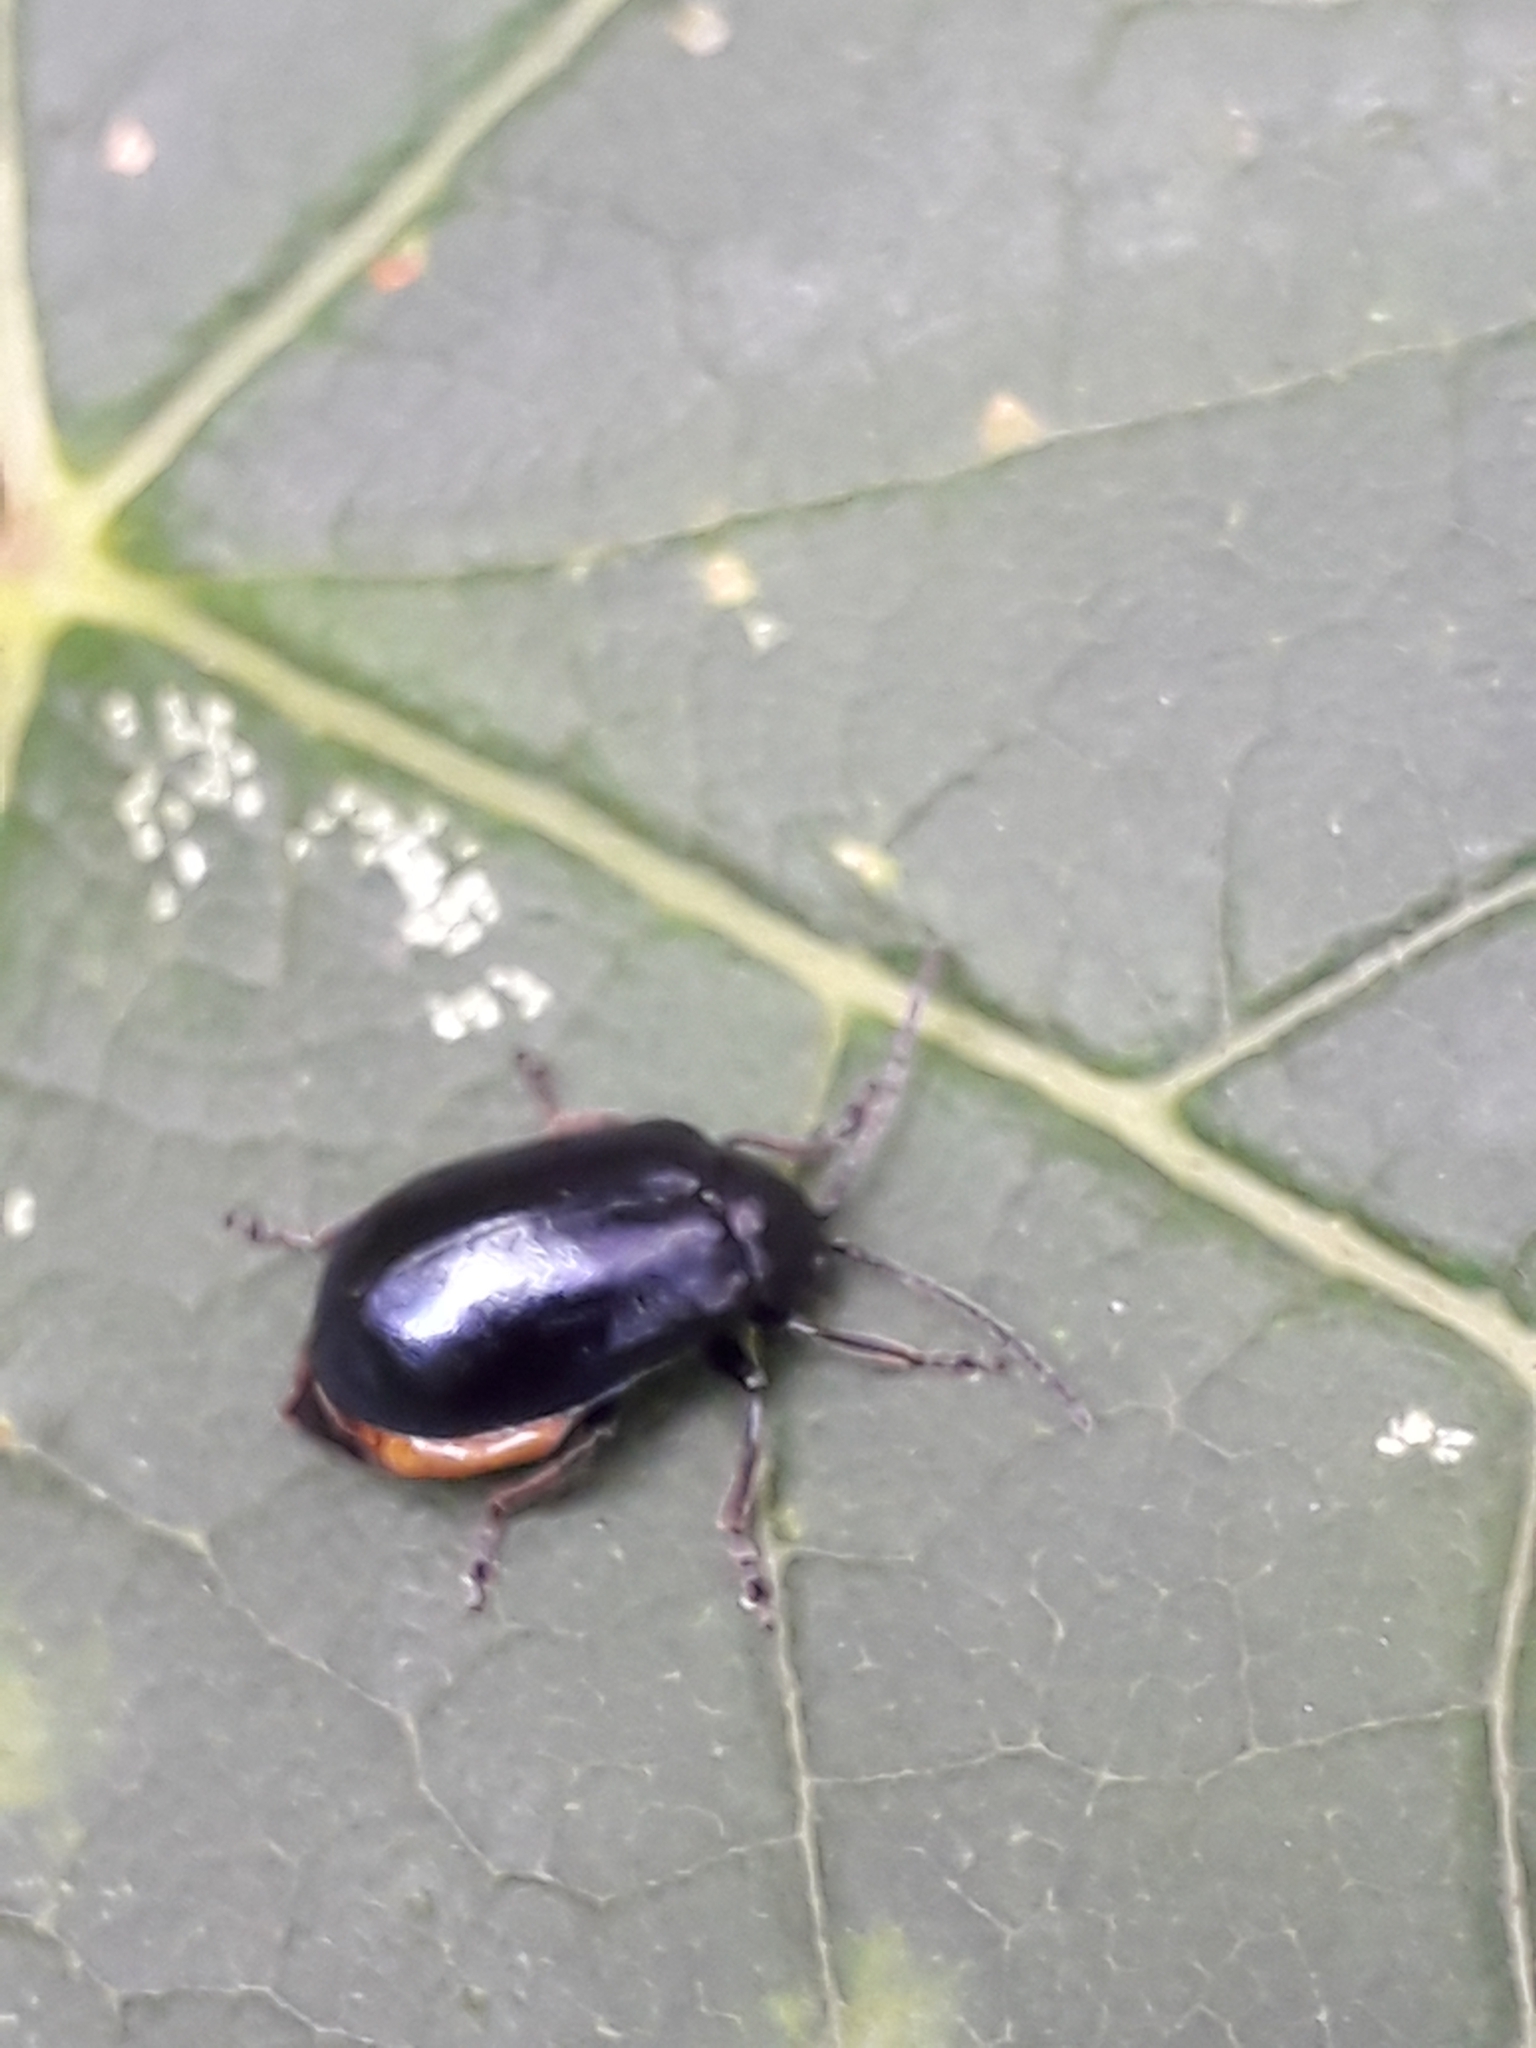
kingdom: Animalia
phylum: Arthropoda
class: Insecta
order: Coleoptera
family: Chrysomelidae
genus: Agelastica
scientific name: Agelastica alni
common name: Alder leaf beetle
